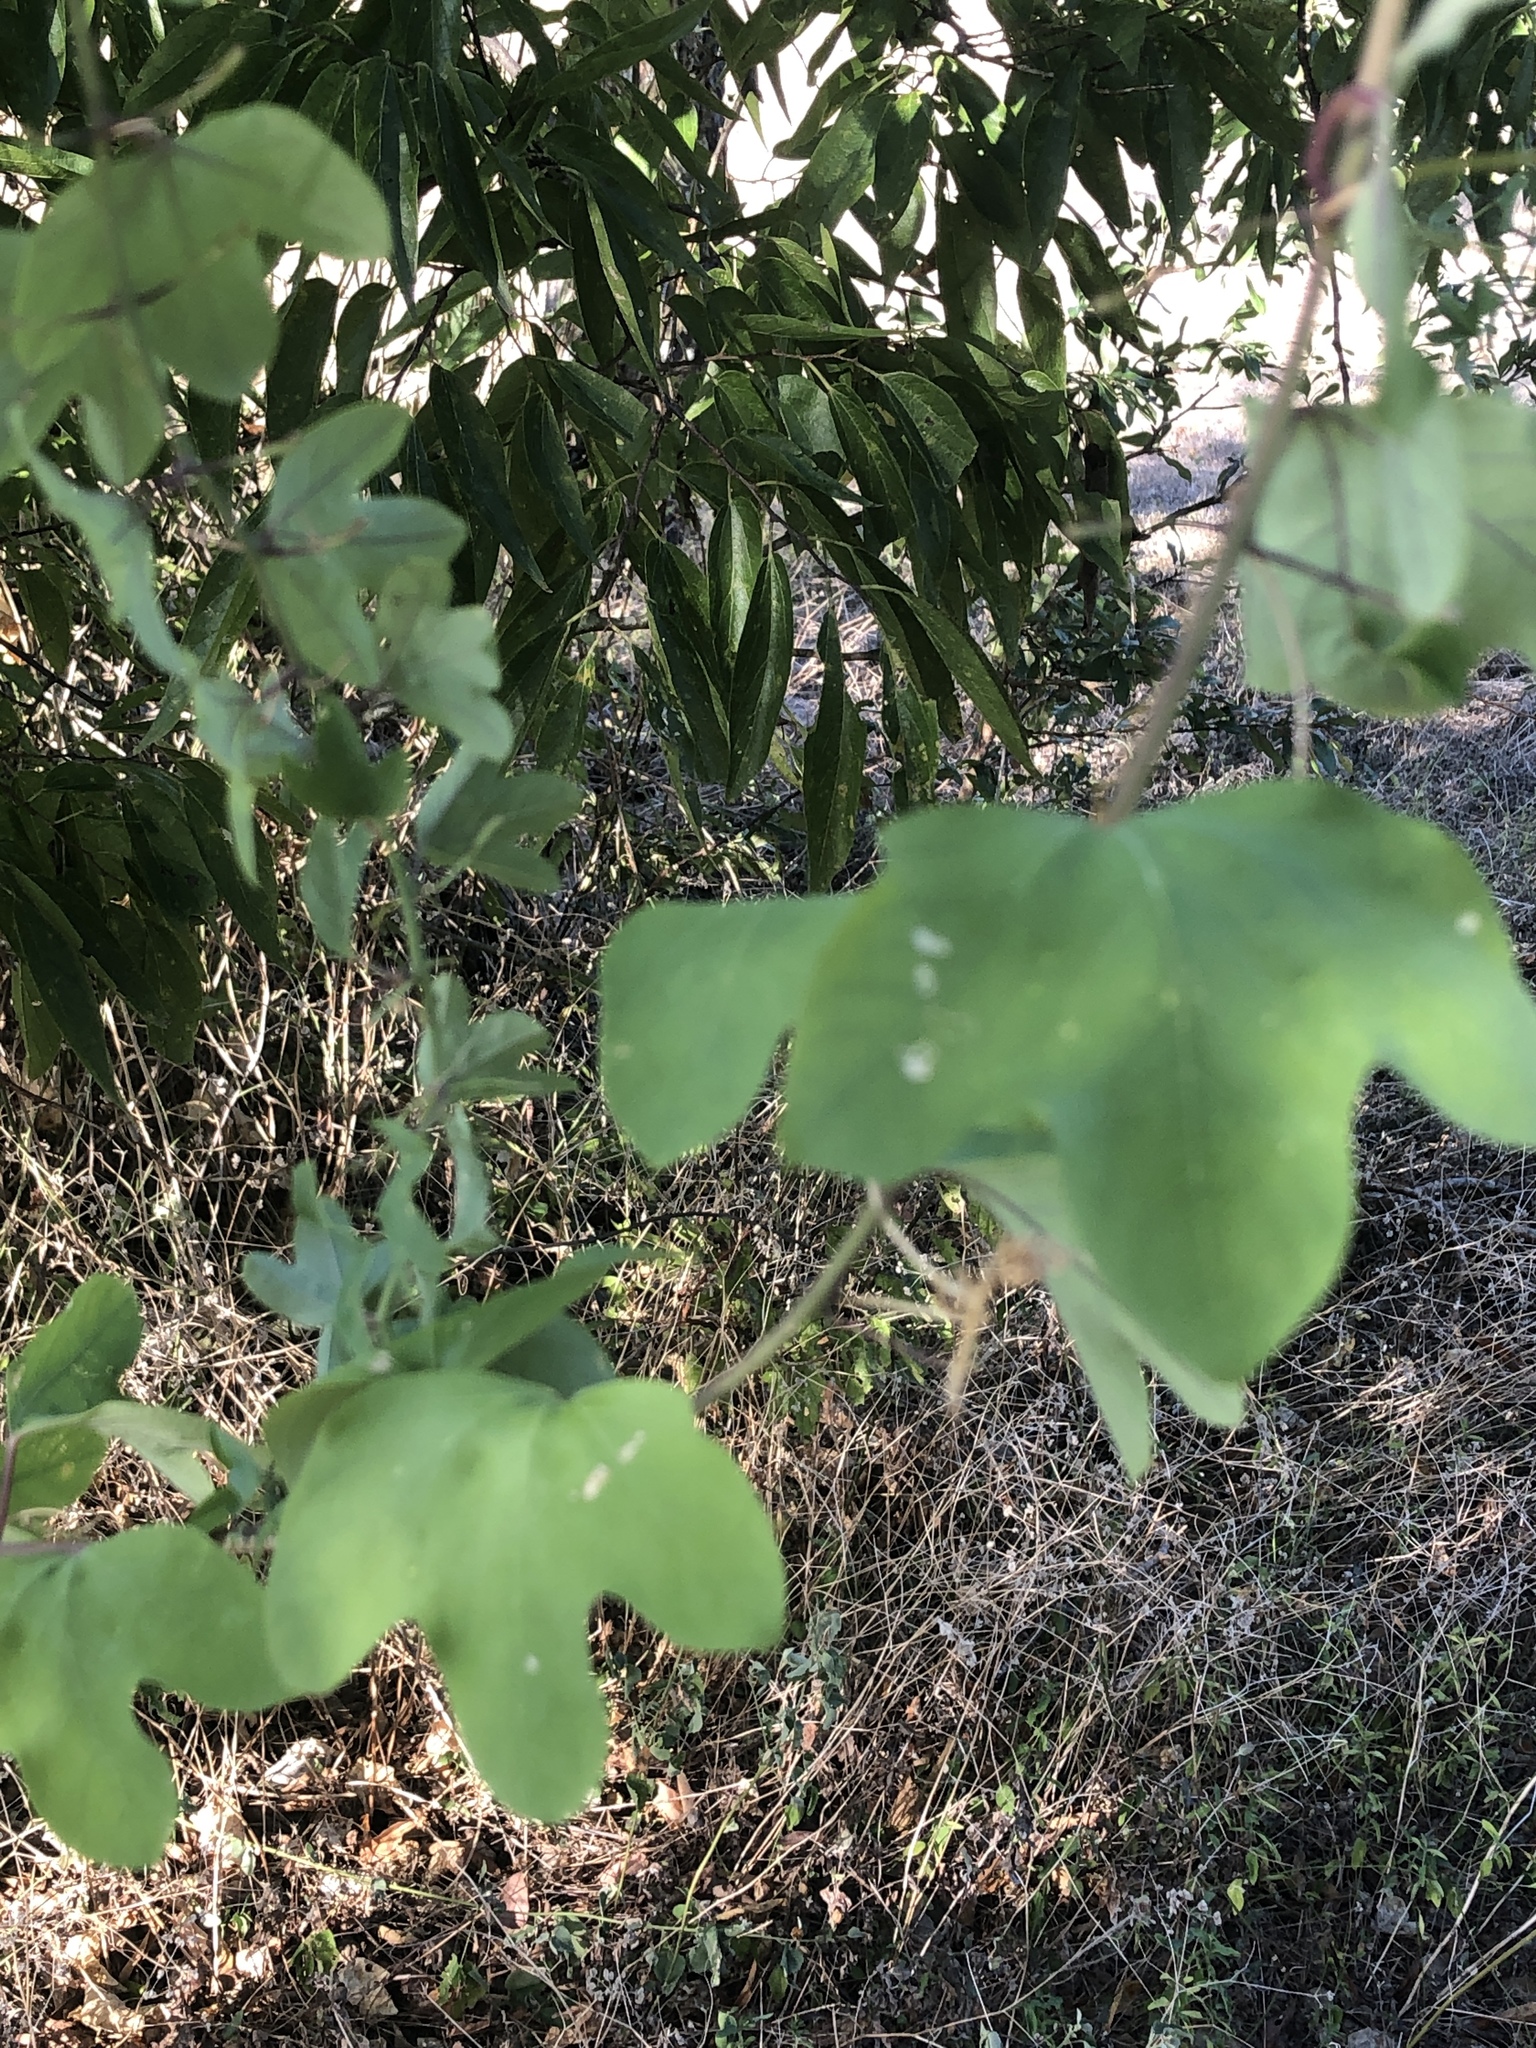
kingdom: Plantae
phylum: Tracheophyta
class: Magnoliopsida
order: Malpighiales
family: Passifloraceae
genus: Passiflora
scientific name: Passiflora affinis
